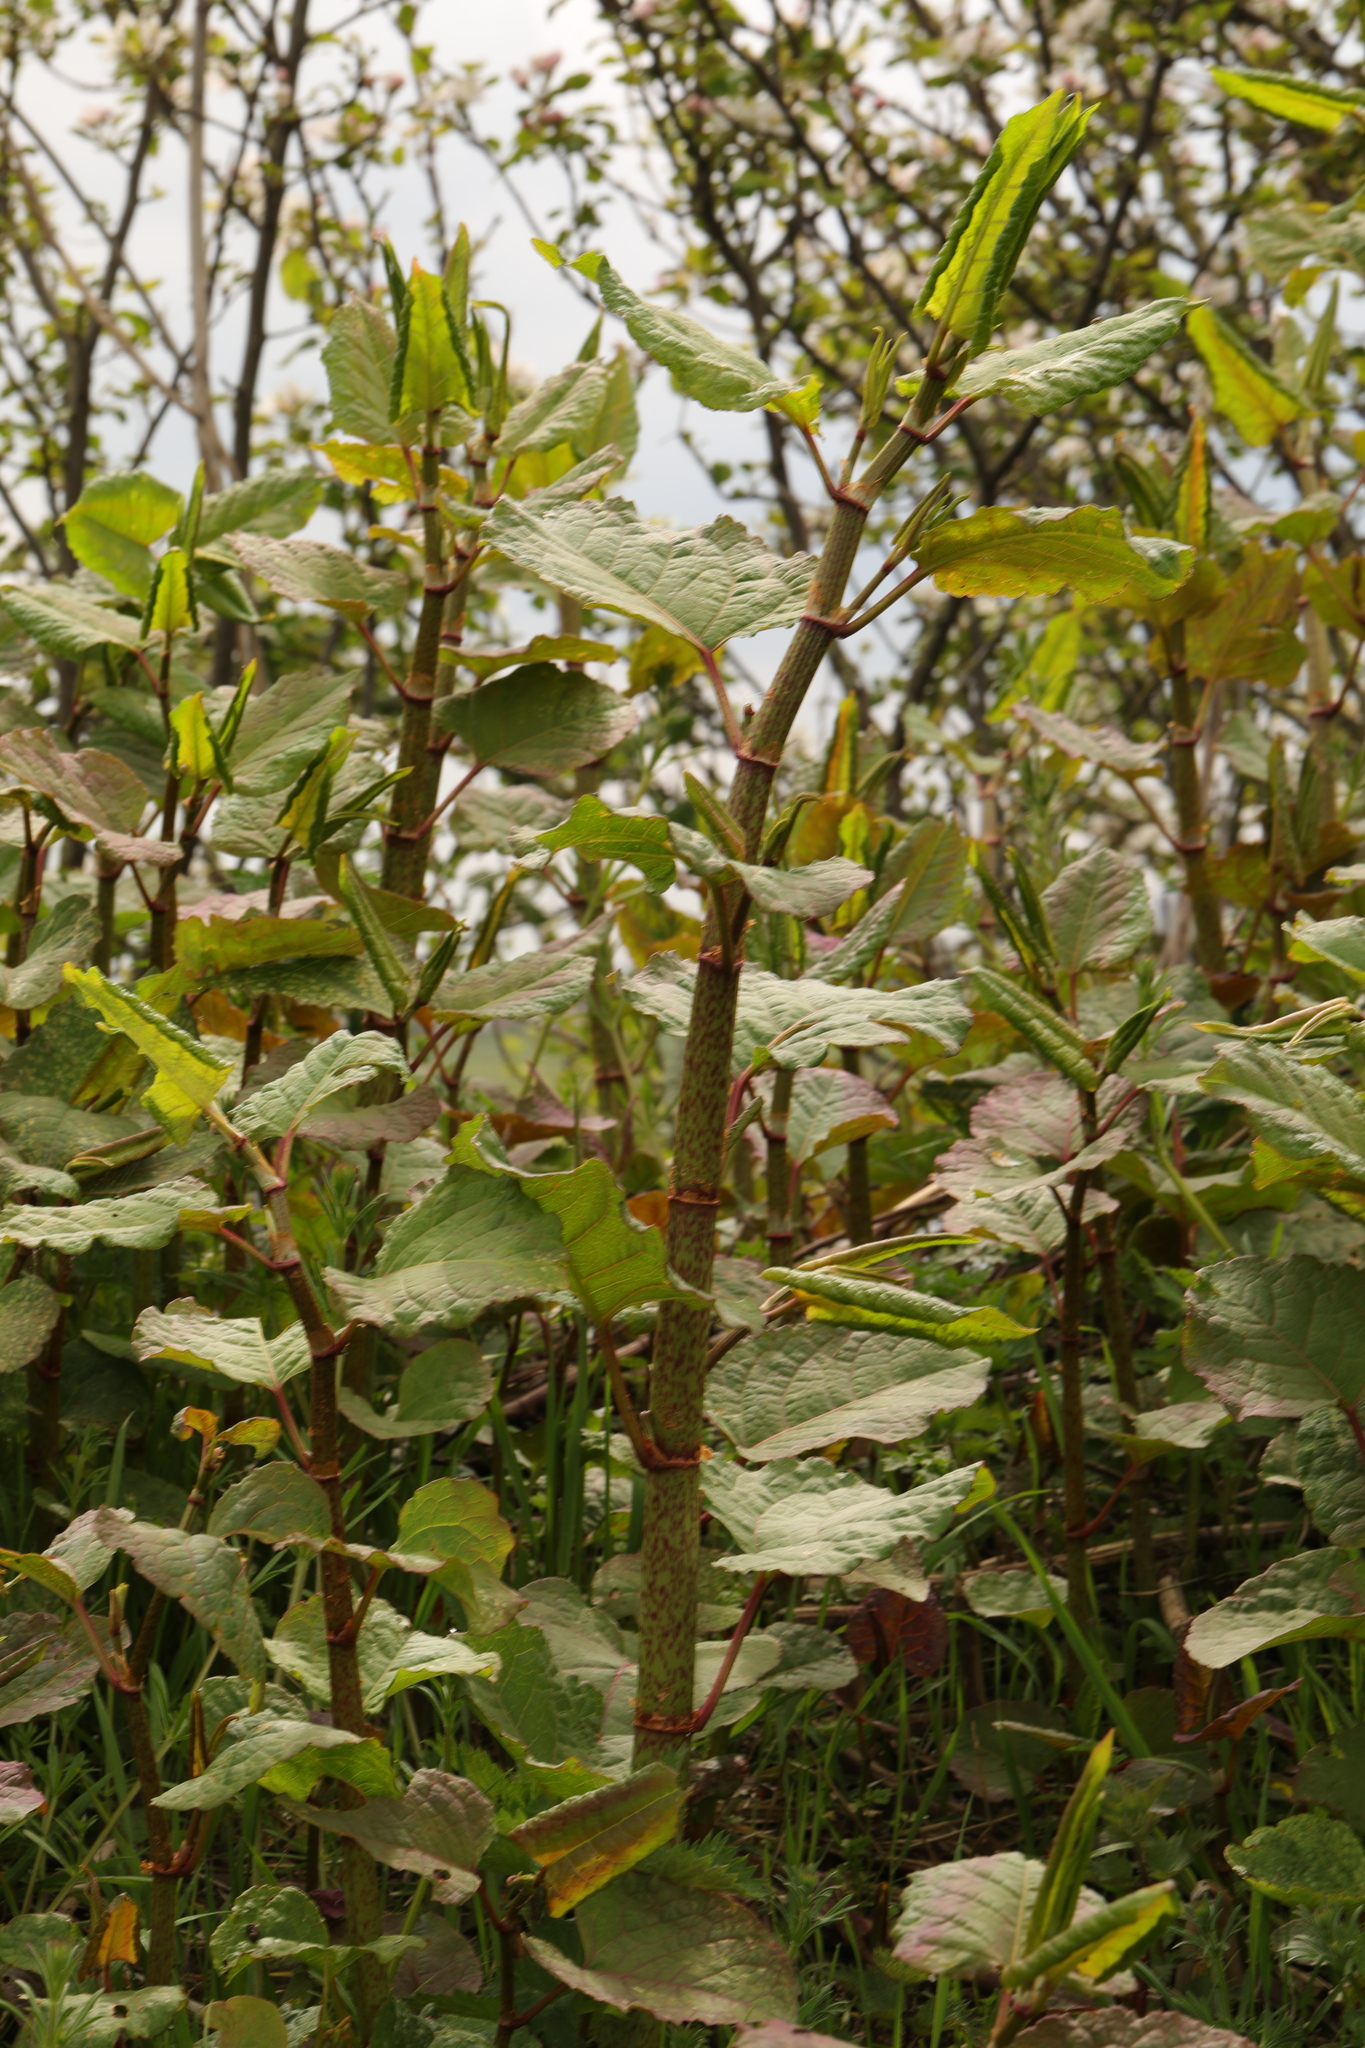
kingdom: Plantae
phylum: Tracheophyta
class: Magnoliopsida
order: Caryophyllales
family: Polygonaceae
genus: Reynoutria
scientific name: Reynoutria japonica
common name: Japanese knotweed
